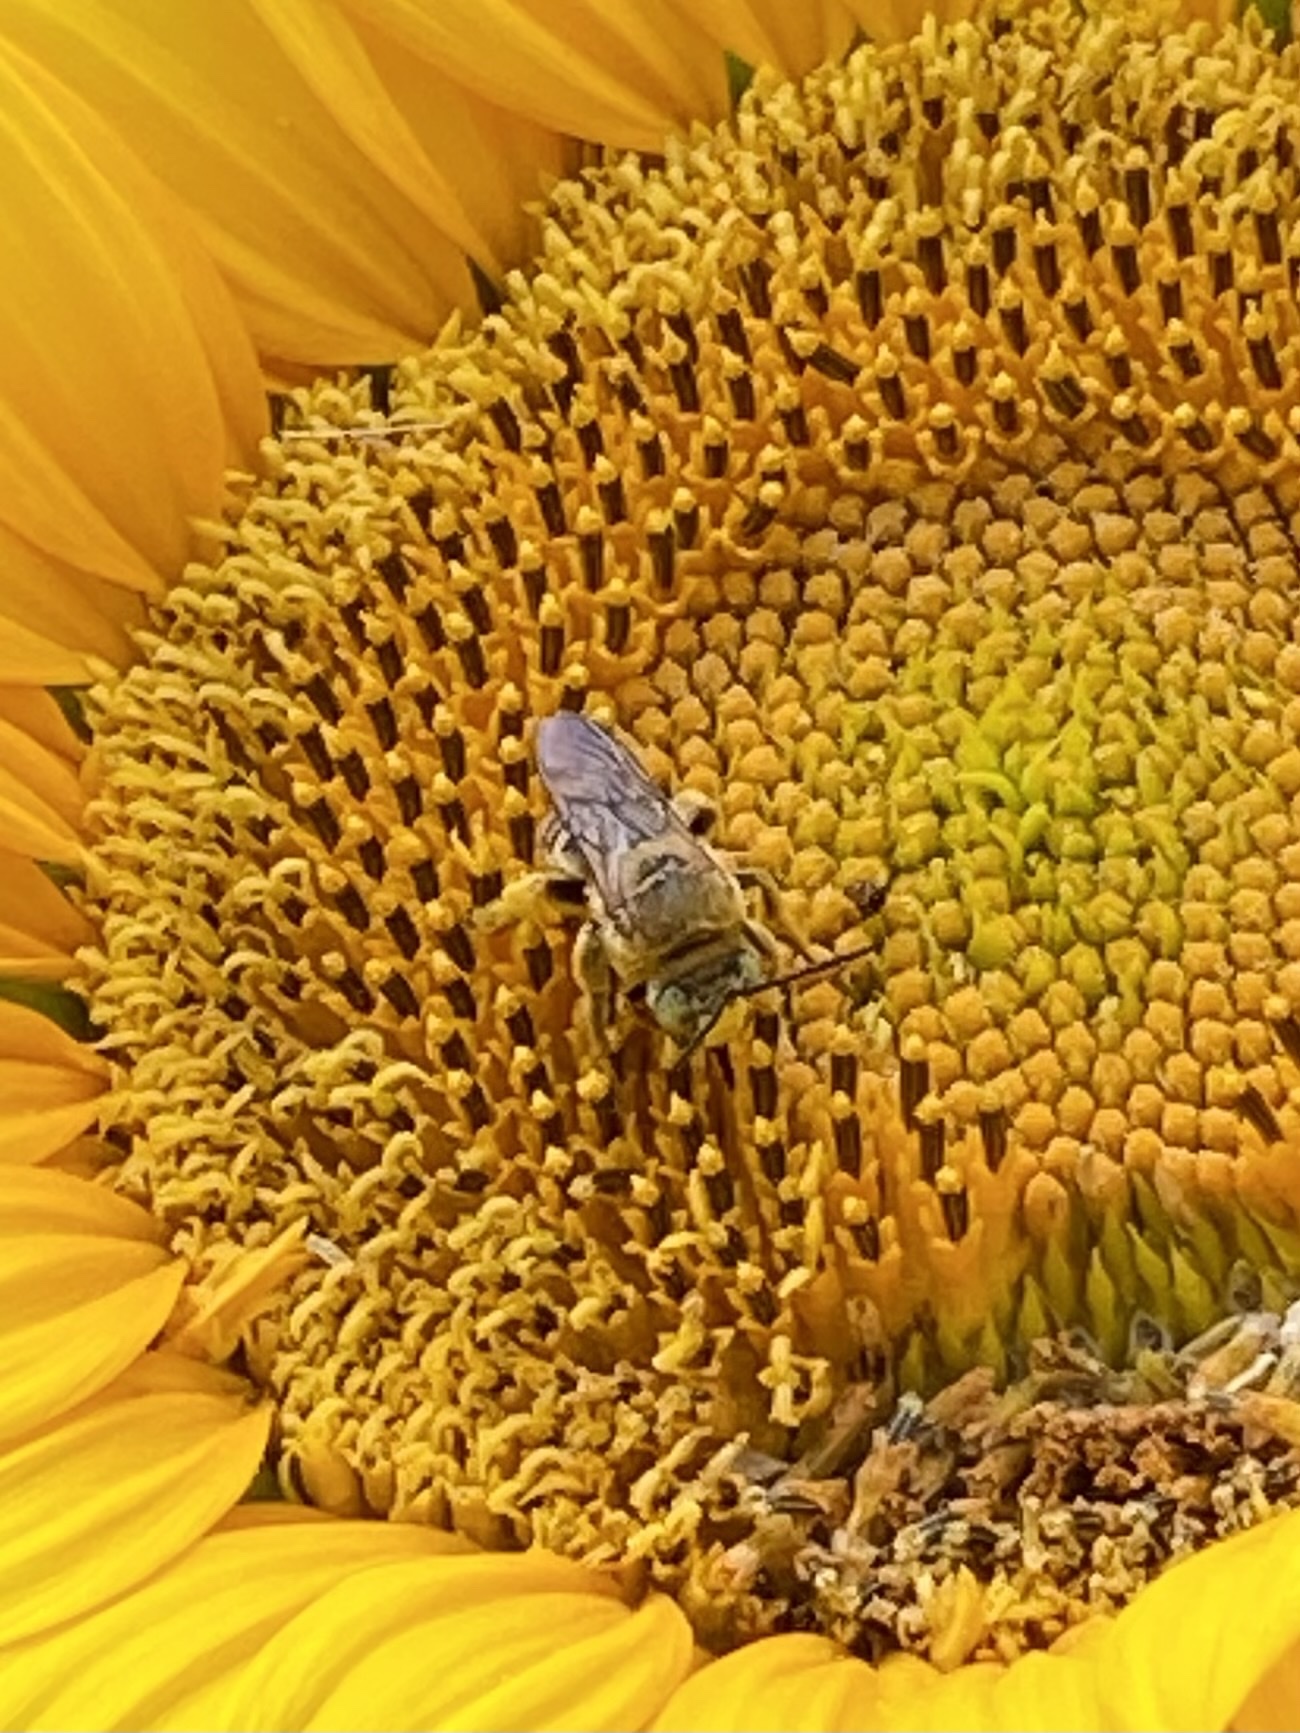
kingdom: Animalia
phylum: Arthropoda
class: Insecta
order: Hymenoptera
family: Apidae
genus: Svastra
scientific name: Svastra obliqua
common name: Oblique longhorn
